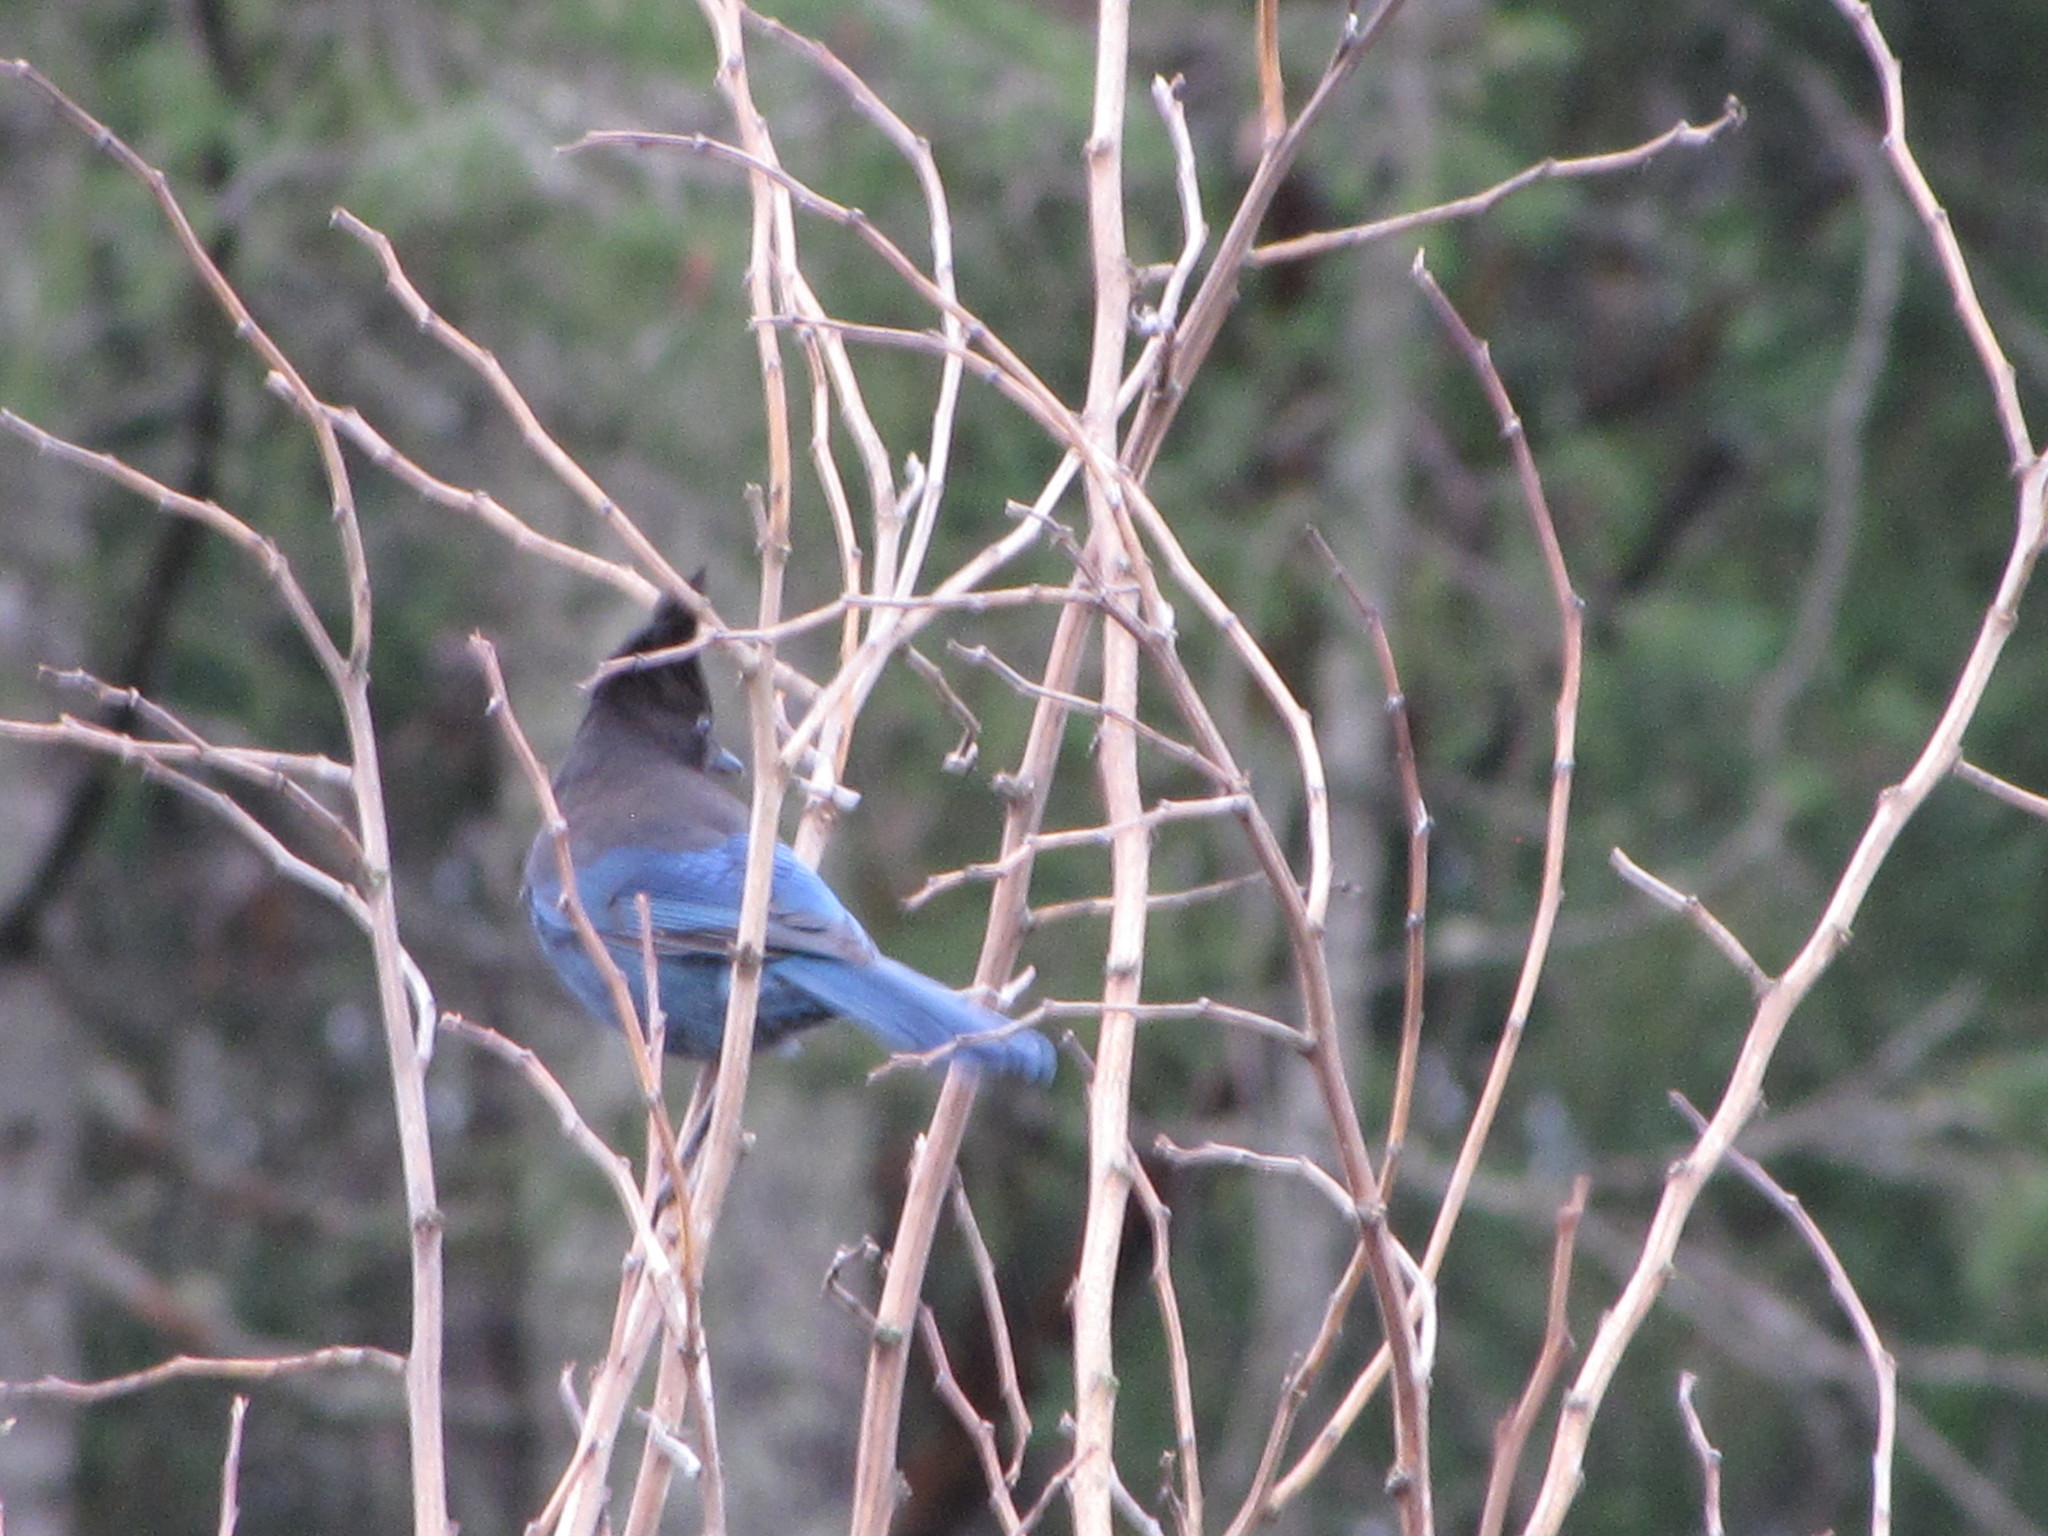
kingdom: Animalia
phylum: Chordata
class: Aves
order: Passeriformes
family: Corvidae
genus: Cyanocitta
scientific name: Cyanocitta stelleri
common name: Steller's jay
